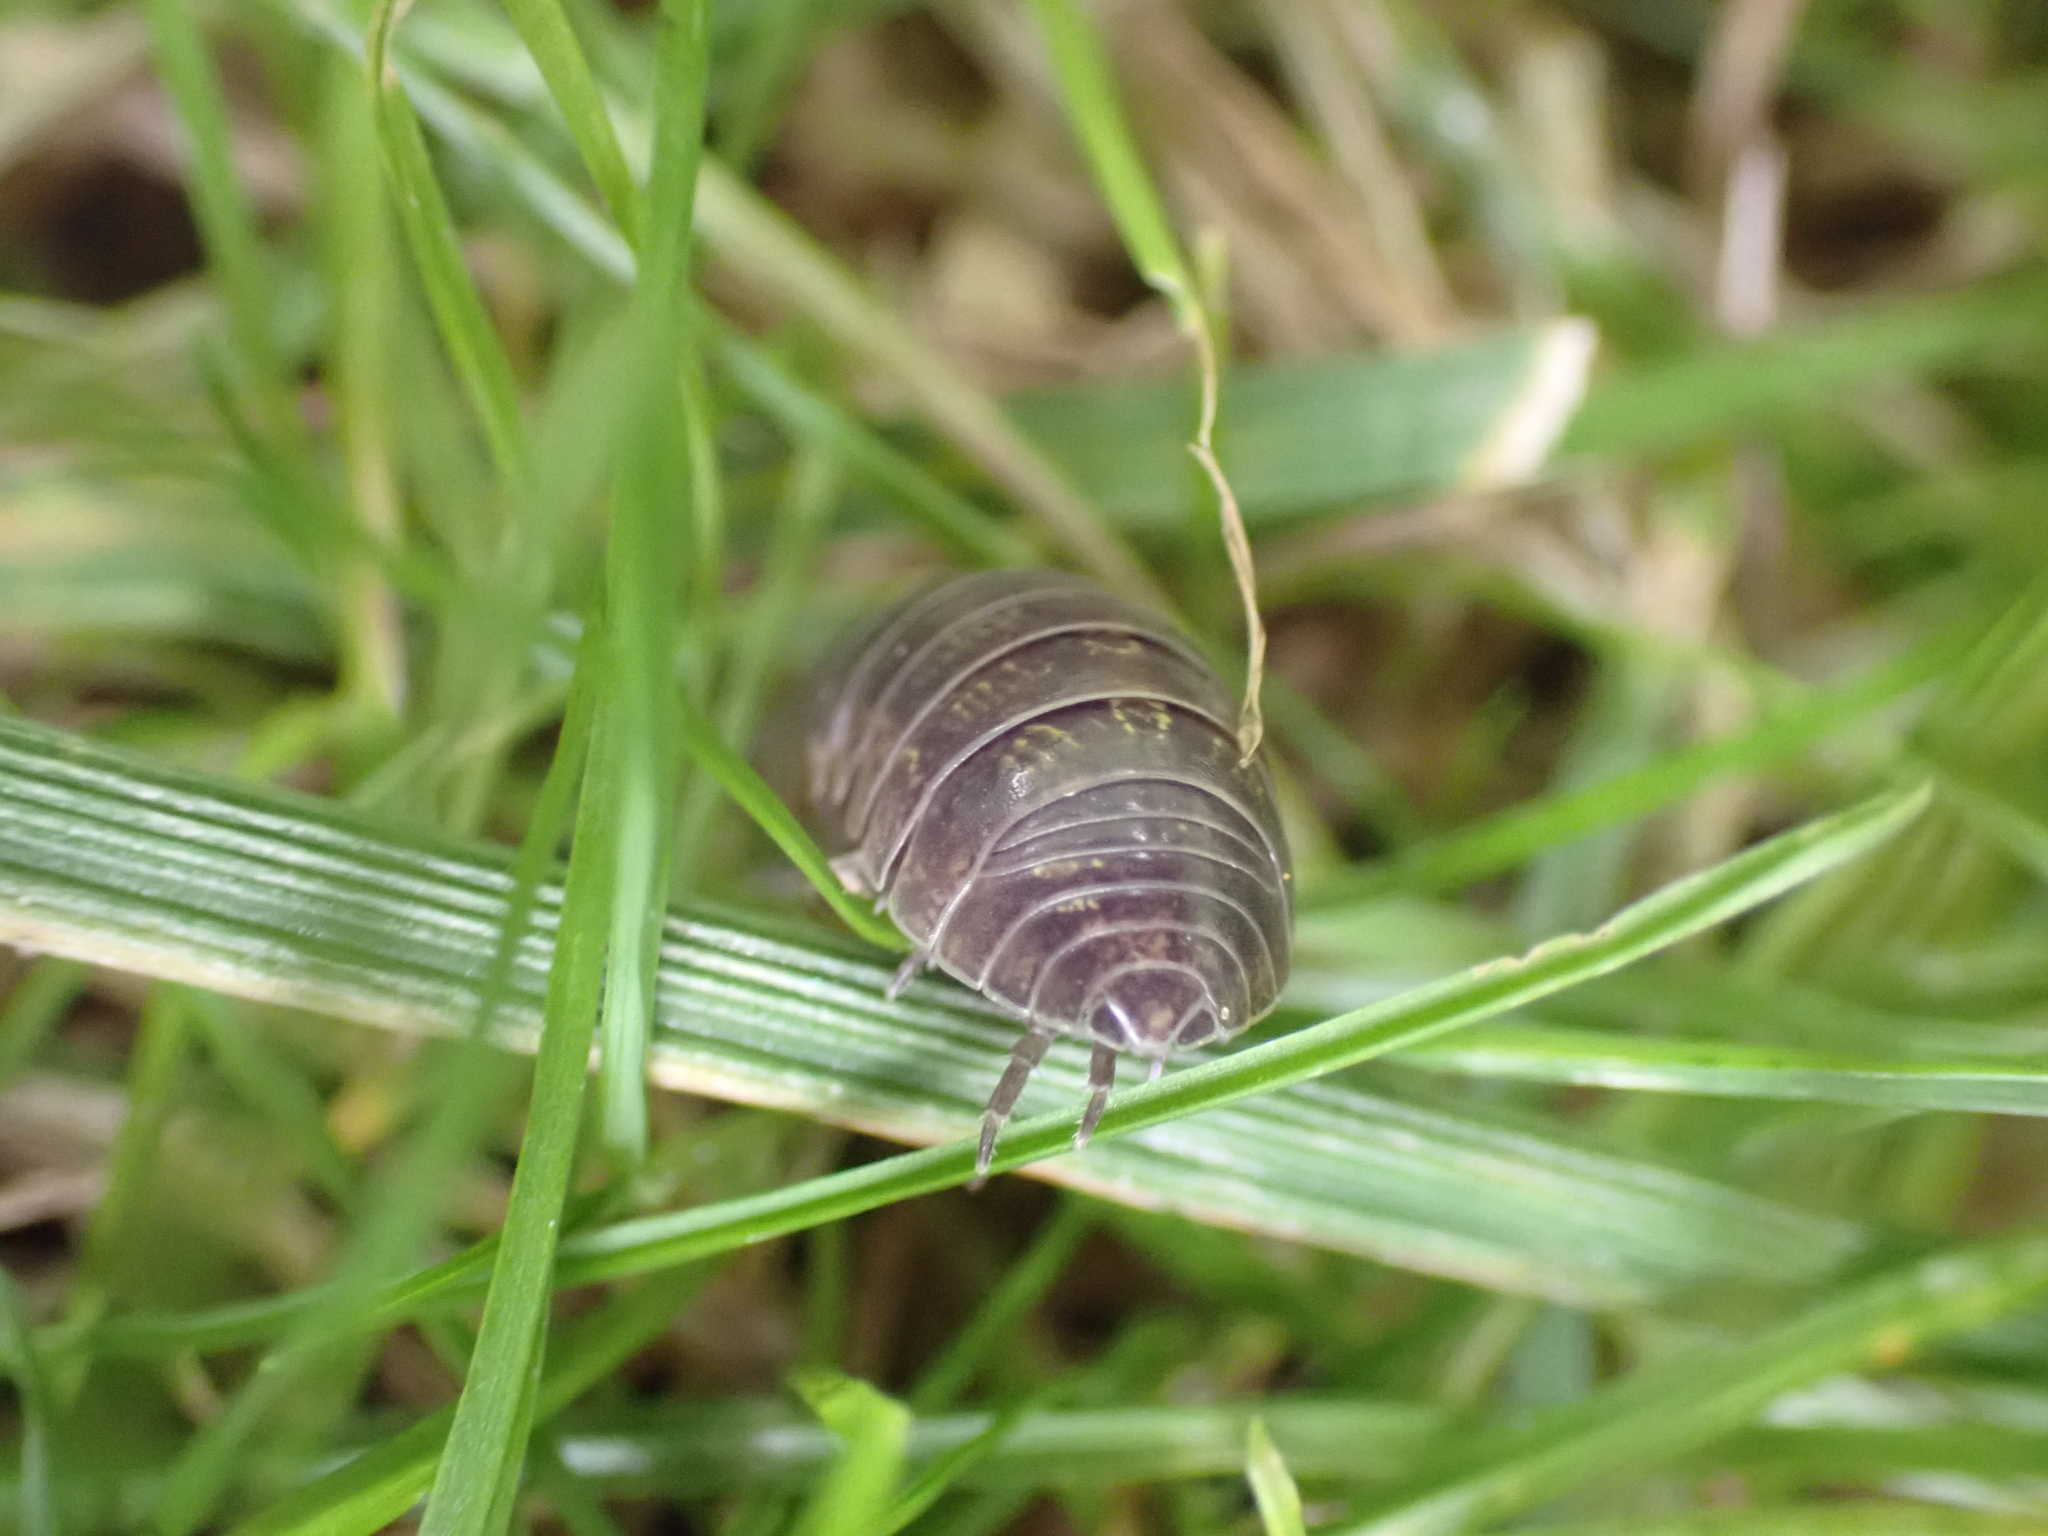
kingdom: Animalia
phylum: Arthropoda
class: Malacostraca
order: Isopoda
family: Armadillidiidae
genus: Armadillidium
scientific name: Armadillidium vulgare
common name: Common pill woodlouse
